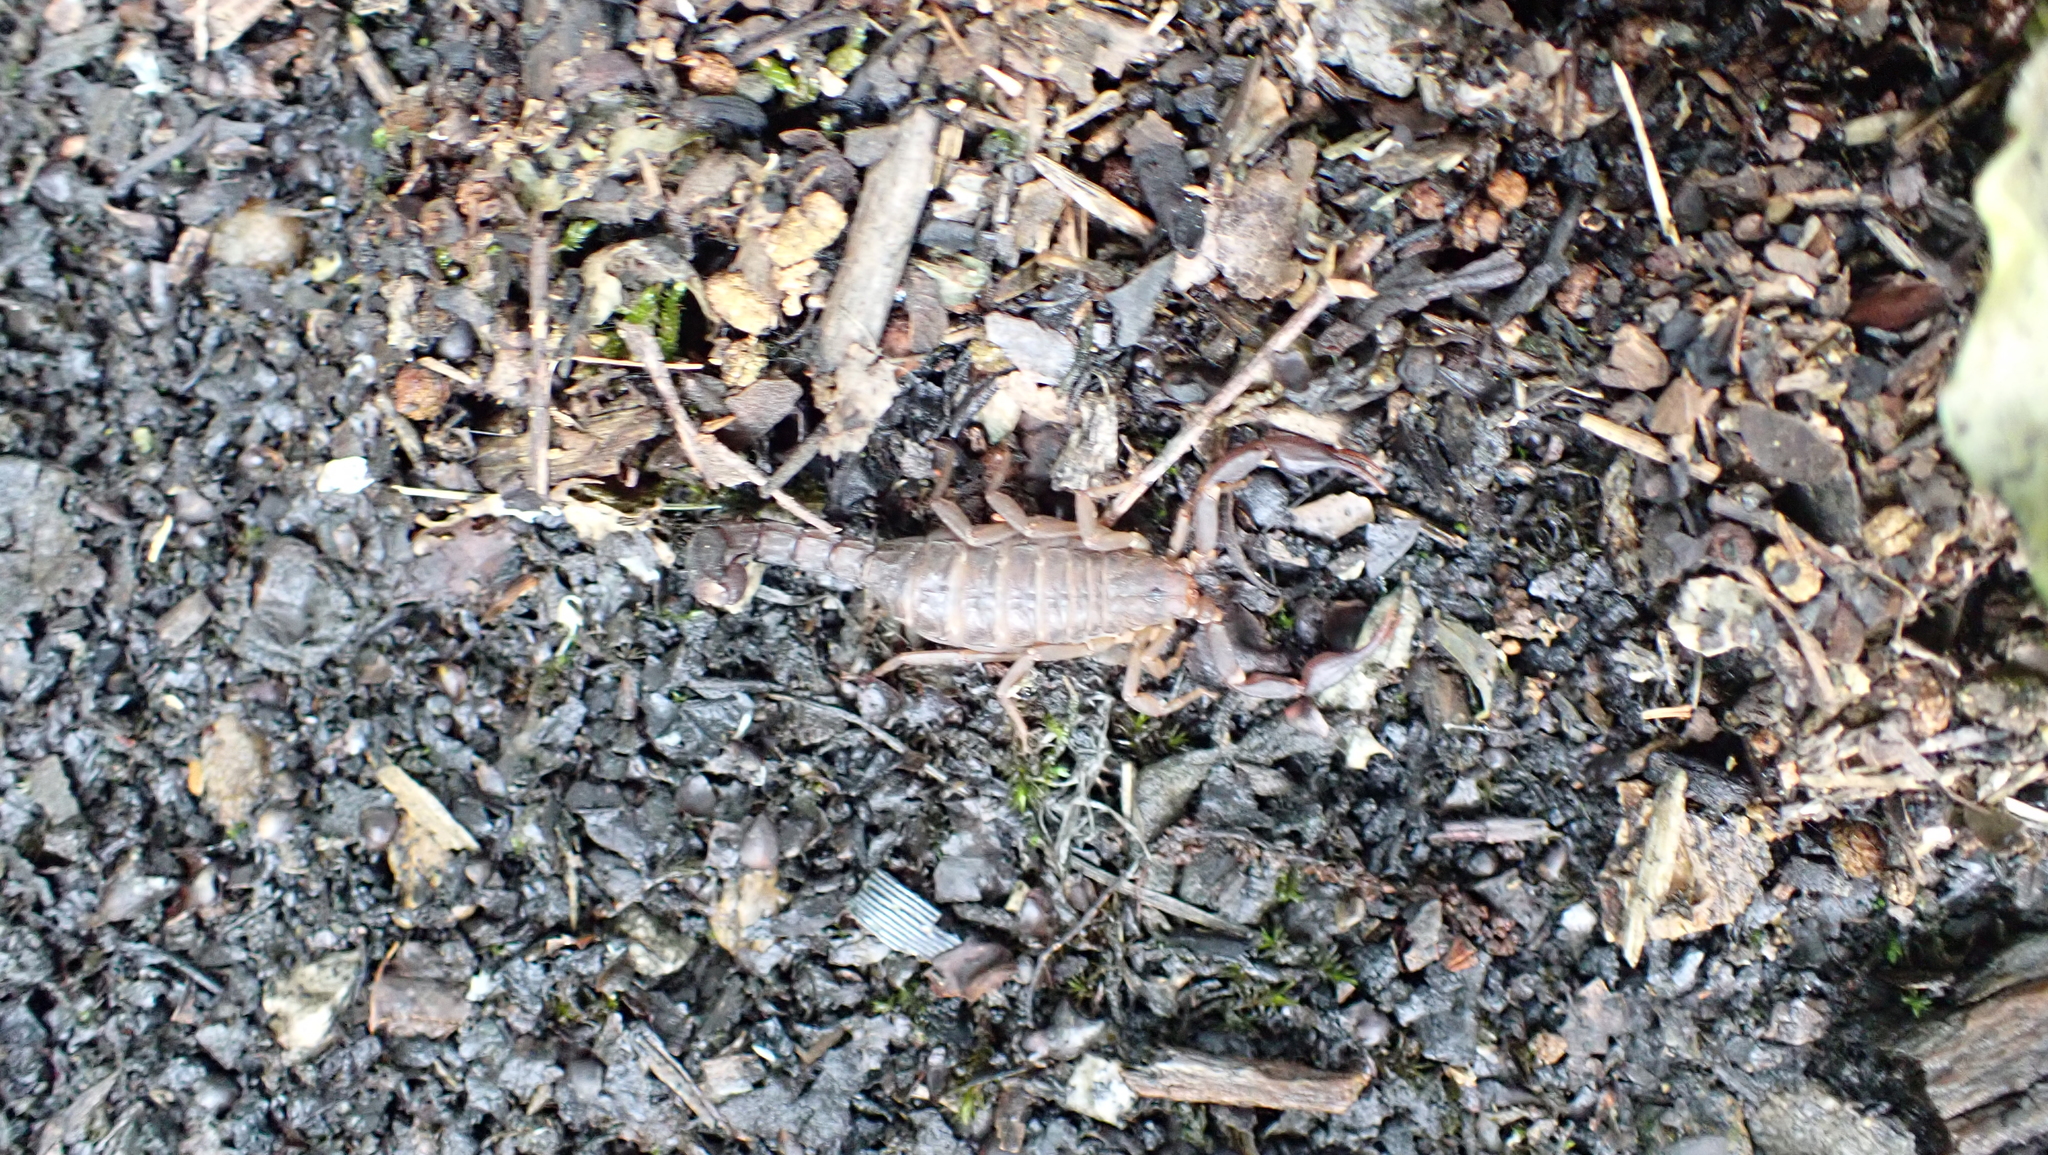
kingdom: Animalia
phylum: Arthropoda
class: Arachnida
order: Scorpiones
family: Vaejovidae
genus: Vaejovis
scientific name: Vaejovis carolinianus
